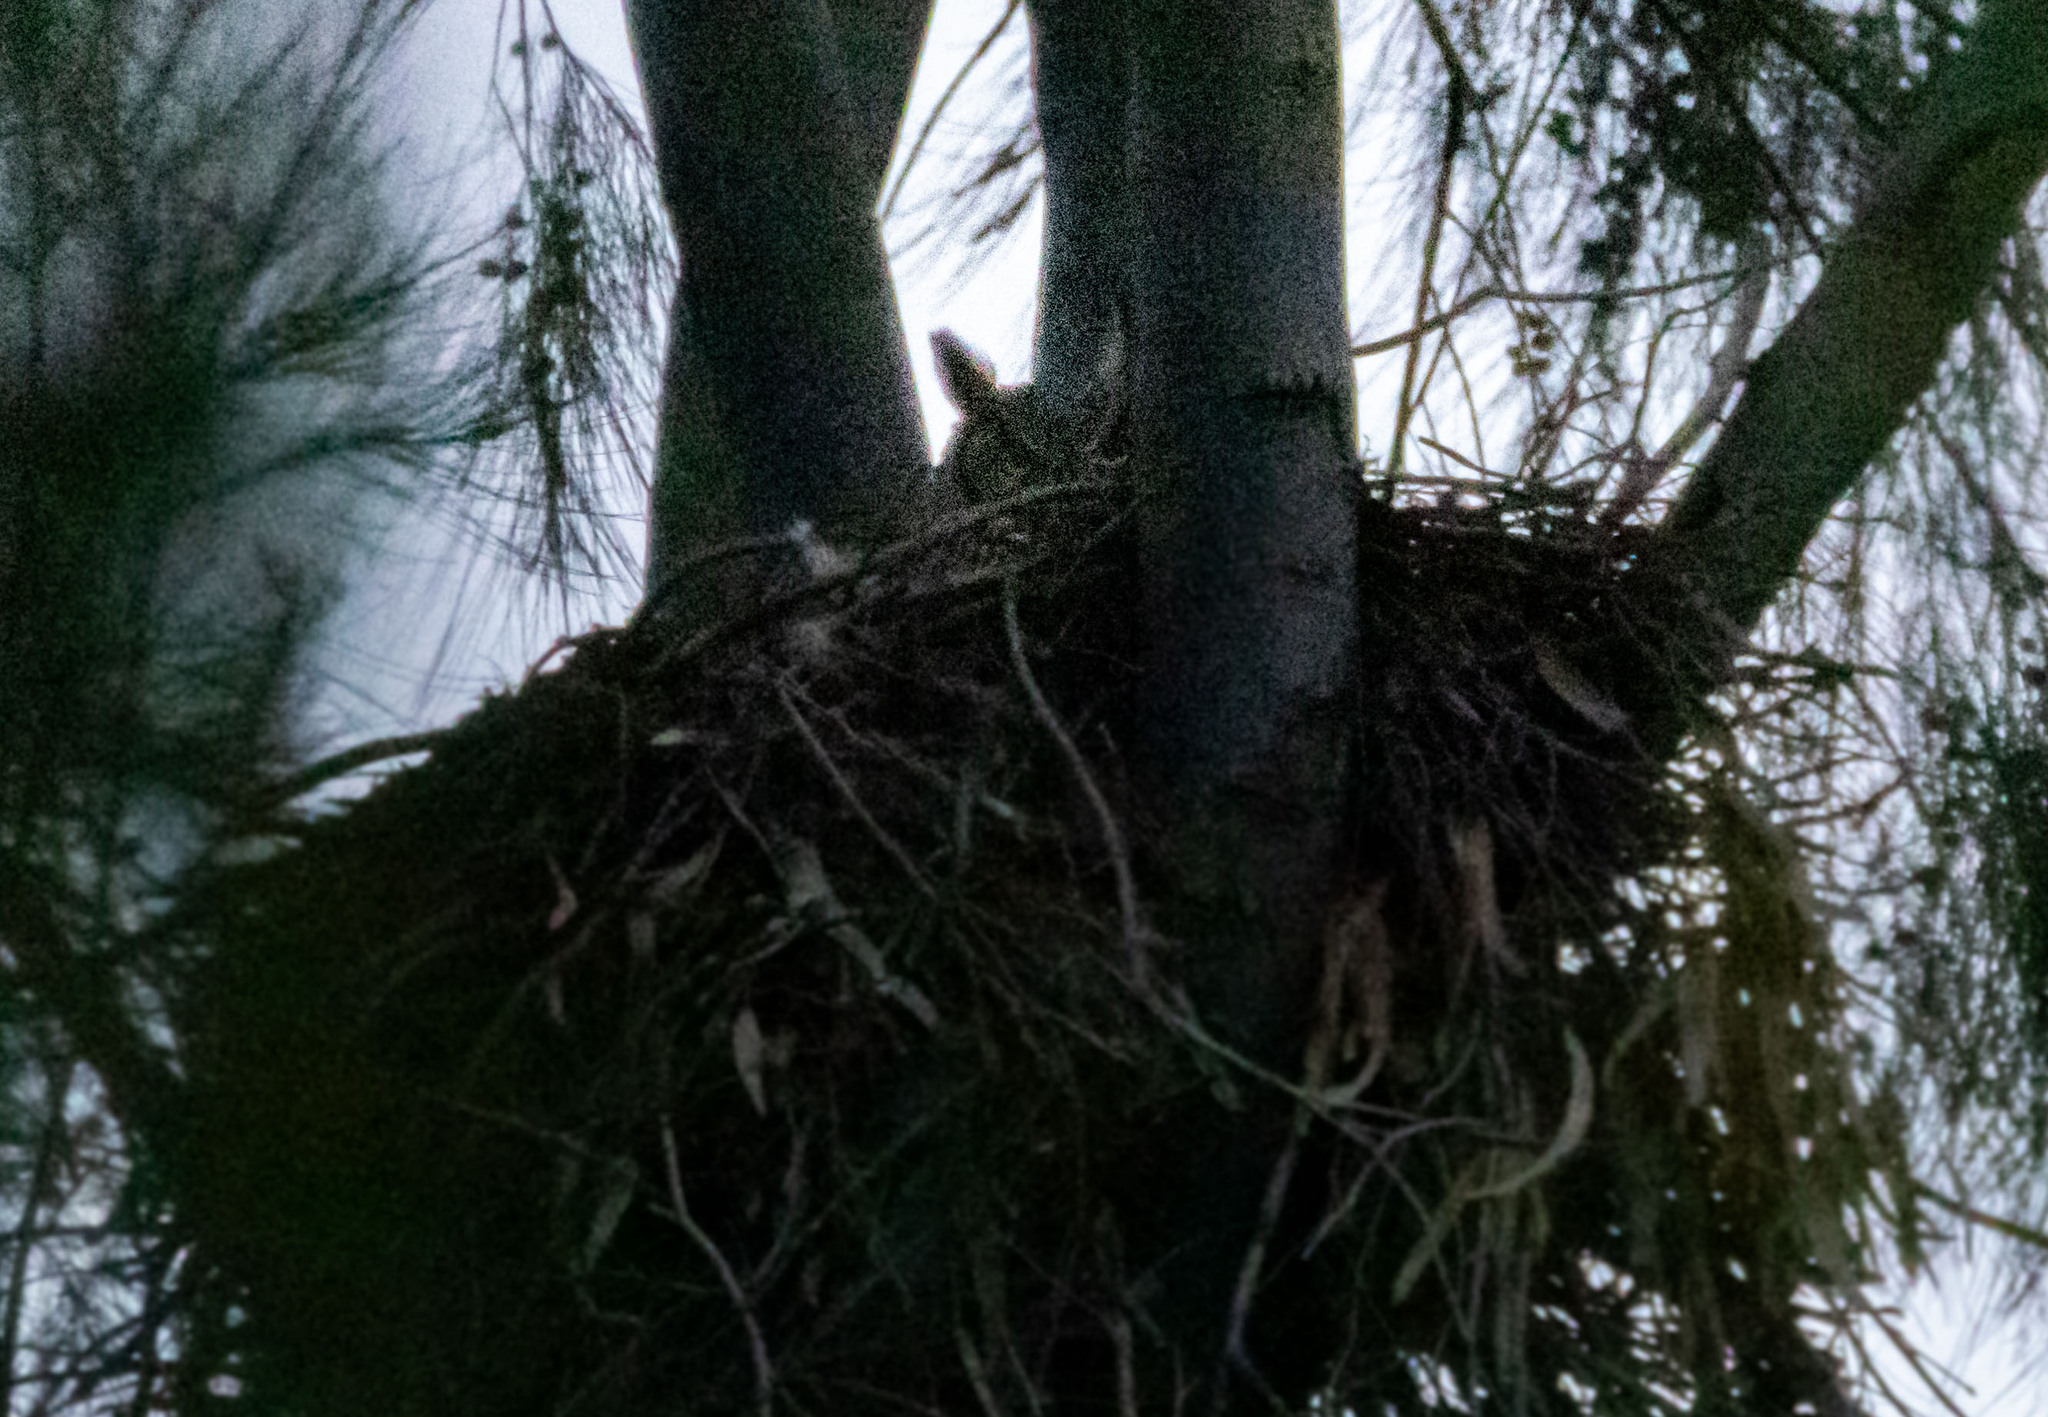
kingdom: Animalia
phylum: Chordata
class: Aves
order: Strigiformes
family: Strigidae
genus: Bubo
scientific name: Bubo virginianus
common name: Great horned owl
